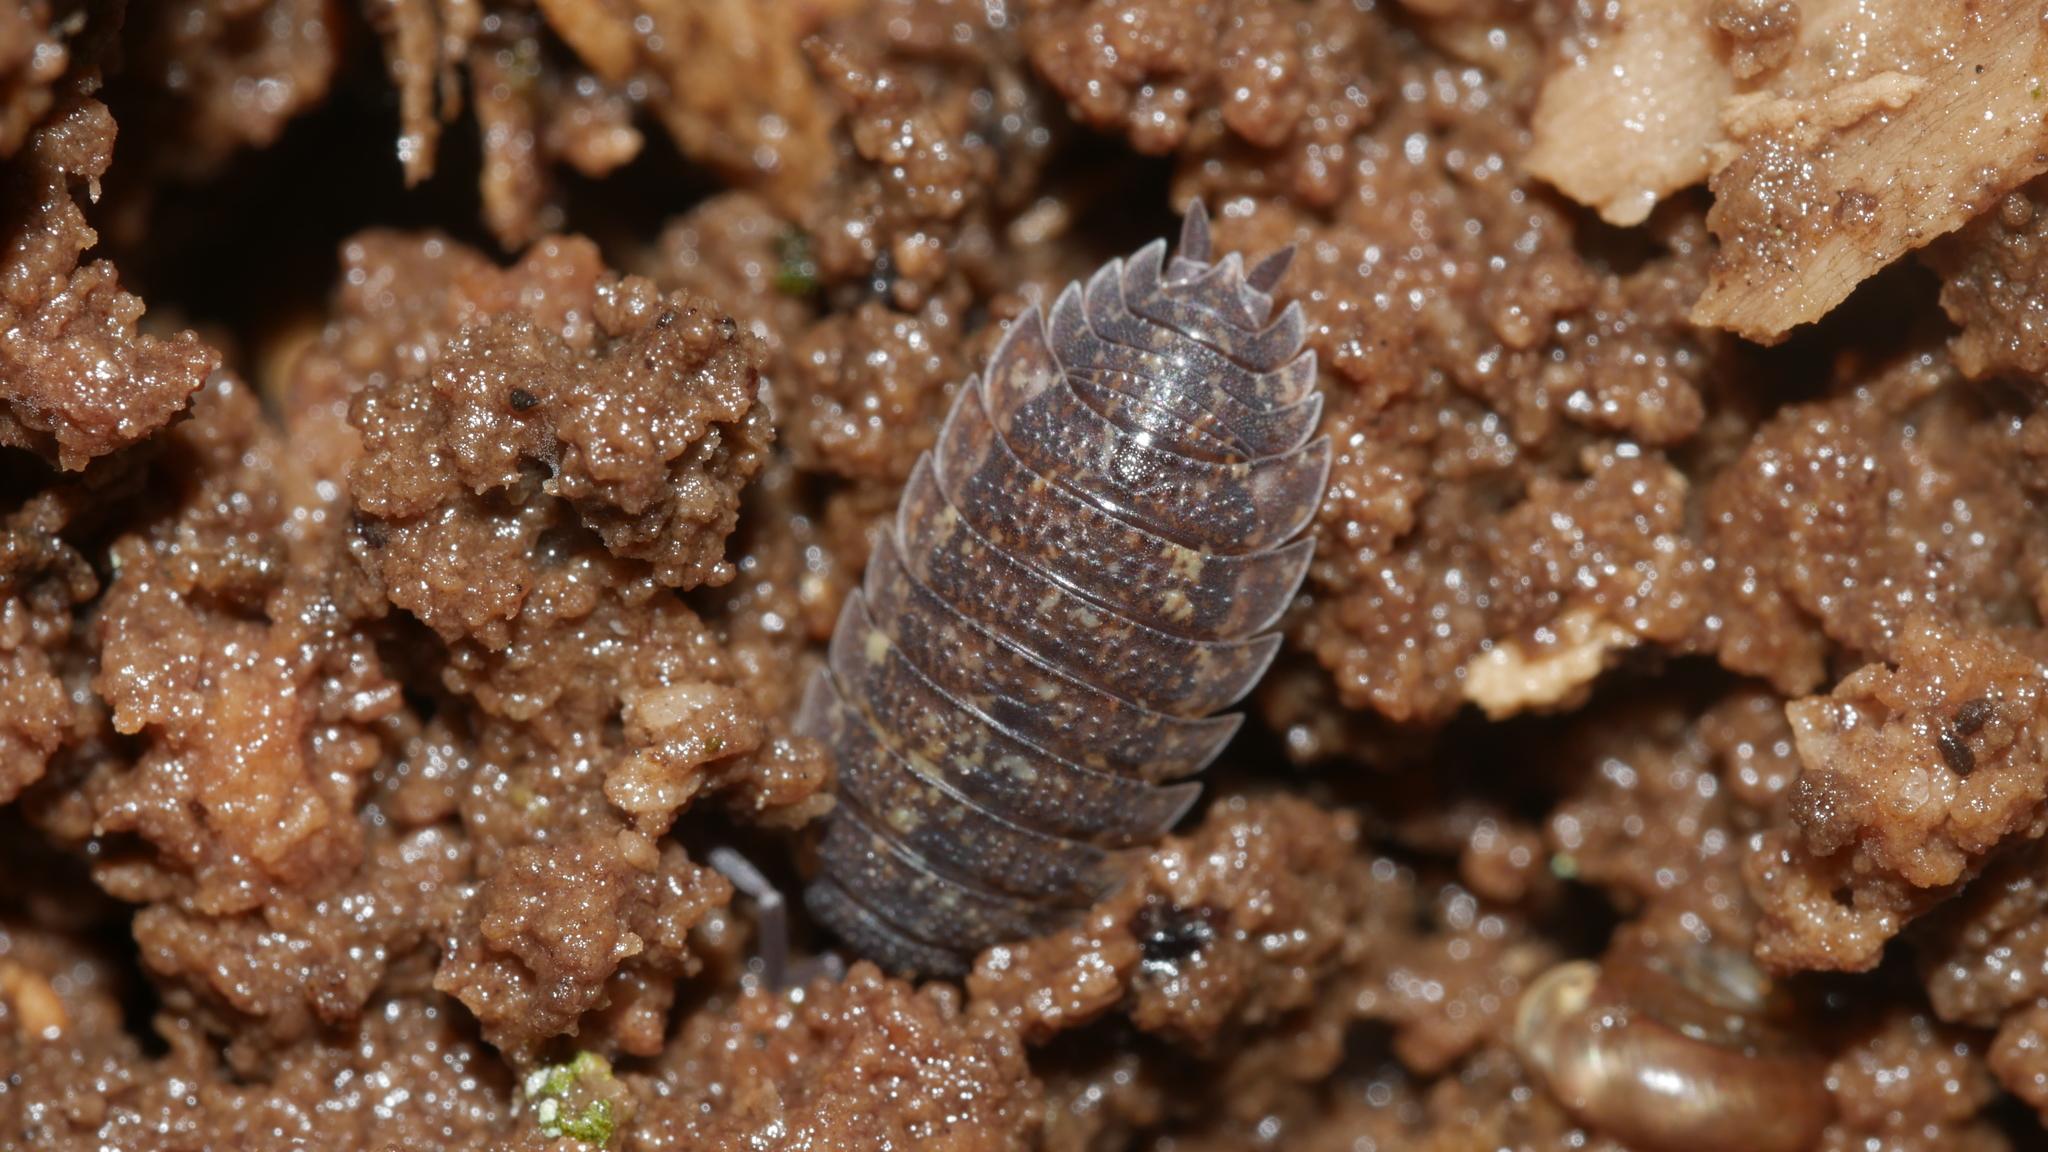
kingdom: Animalia
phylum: Arthropoda
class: Malacostraca
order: Isopoda
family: Porcellionidae
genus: Porcellio
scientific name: Porcellio scaber
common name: Common rough woodlouse
